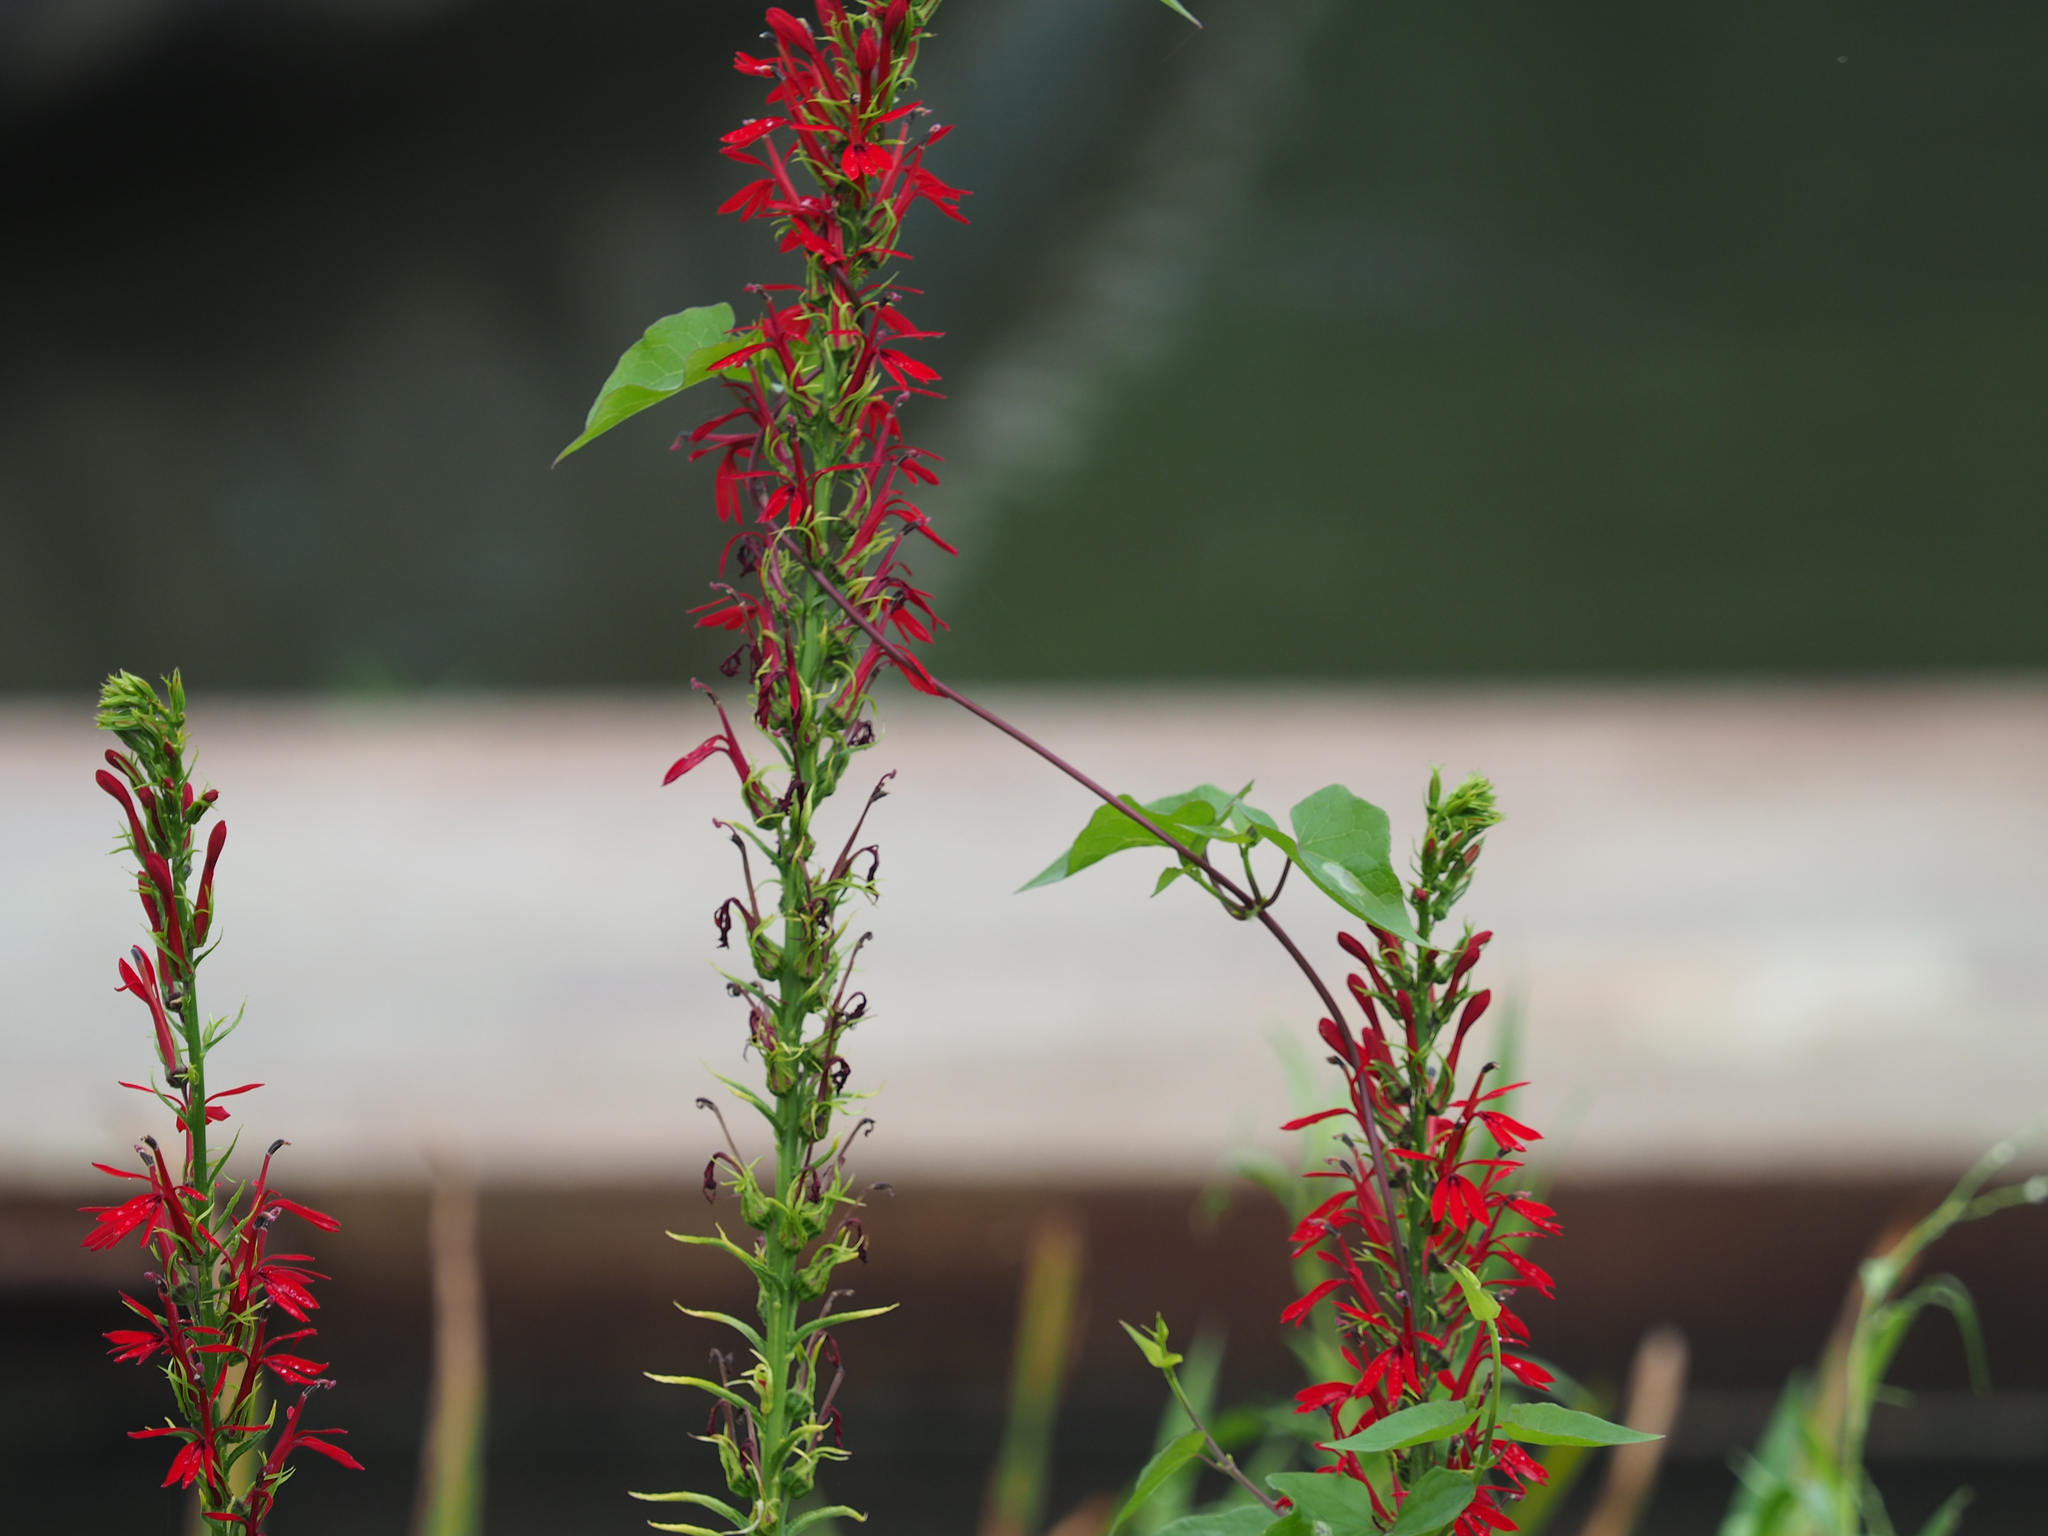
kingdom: Plantae
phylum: Tracheophyta
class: Magnoliopsida
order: Asterales
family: Campanulaceae
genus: Lobelia
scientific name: Lobelia cardinalis
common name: Cardinal flower
